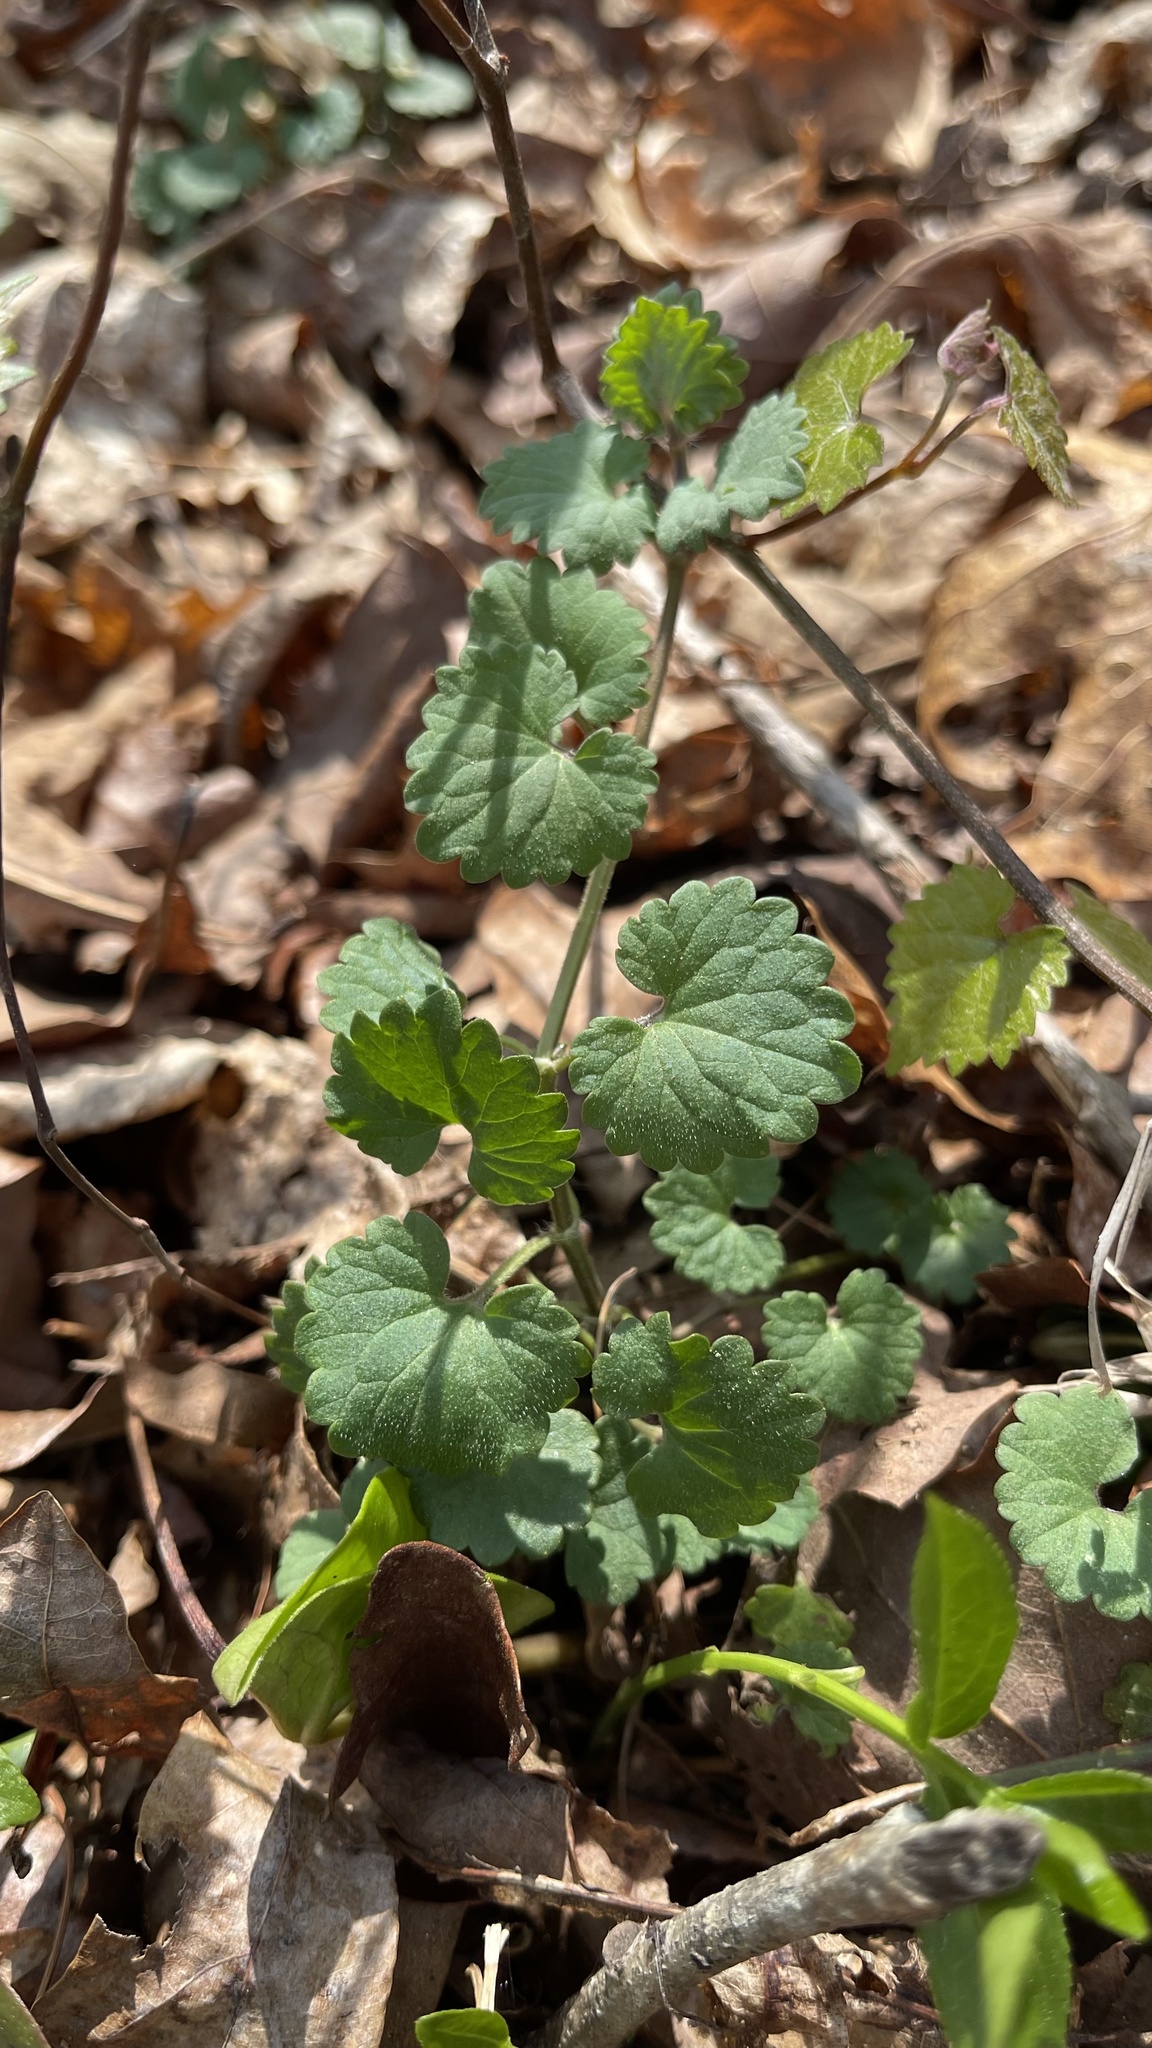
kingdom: Plantae
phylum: Tracheophyta
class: Magnoliopsida
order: Lamiales
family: Lamiaceae
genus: Glechoma
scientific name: Glechoma hederacea
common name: Ground ivy
